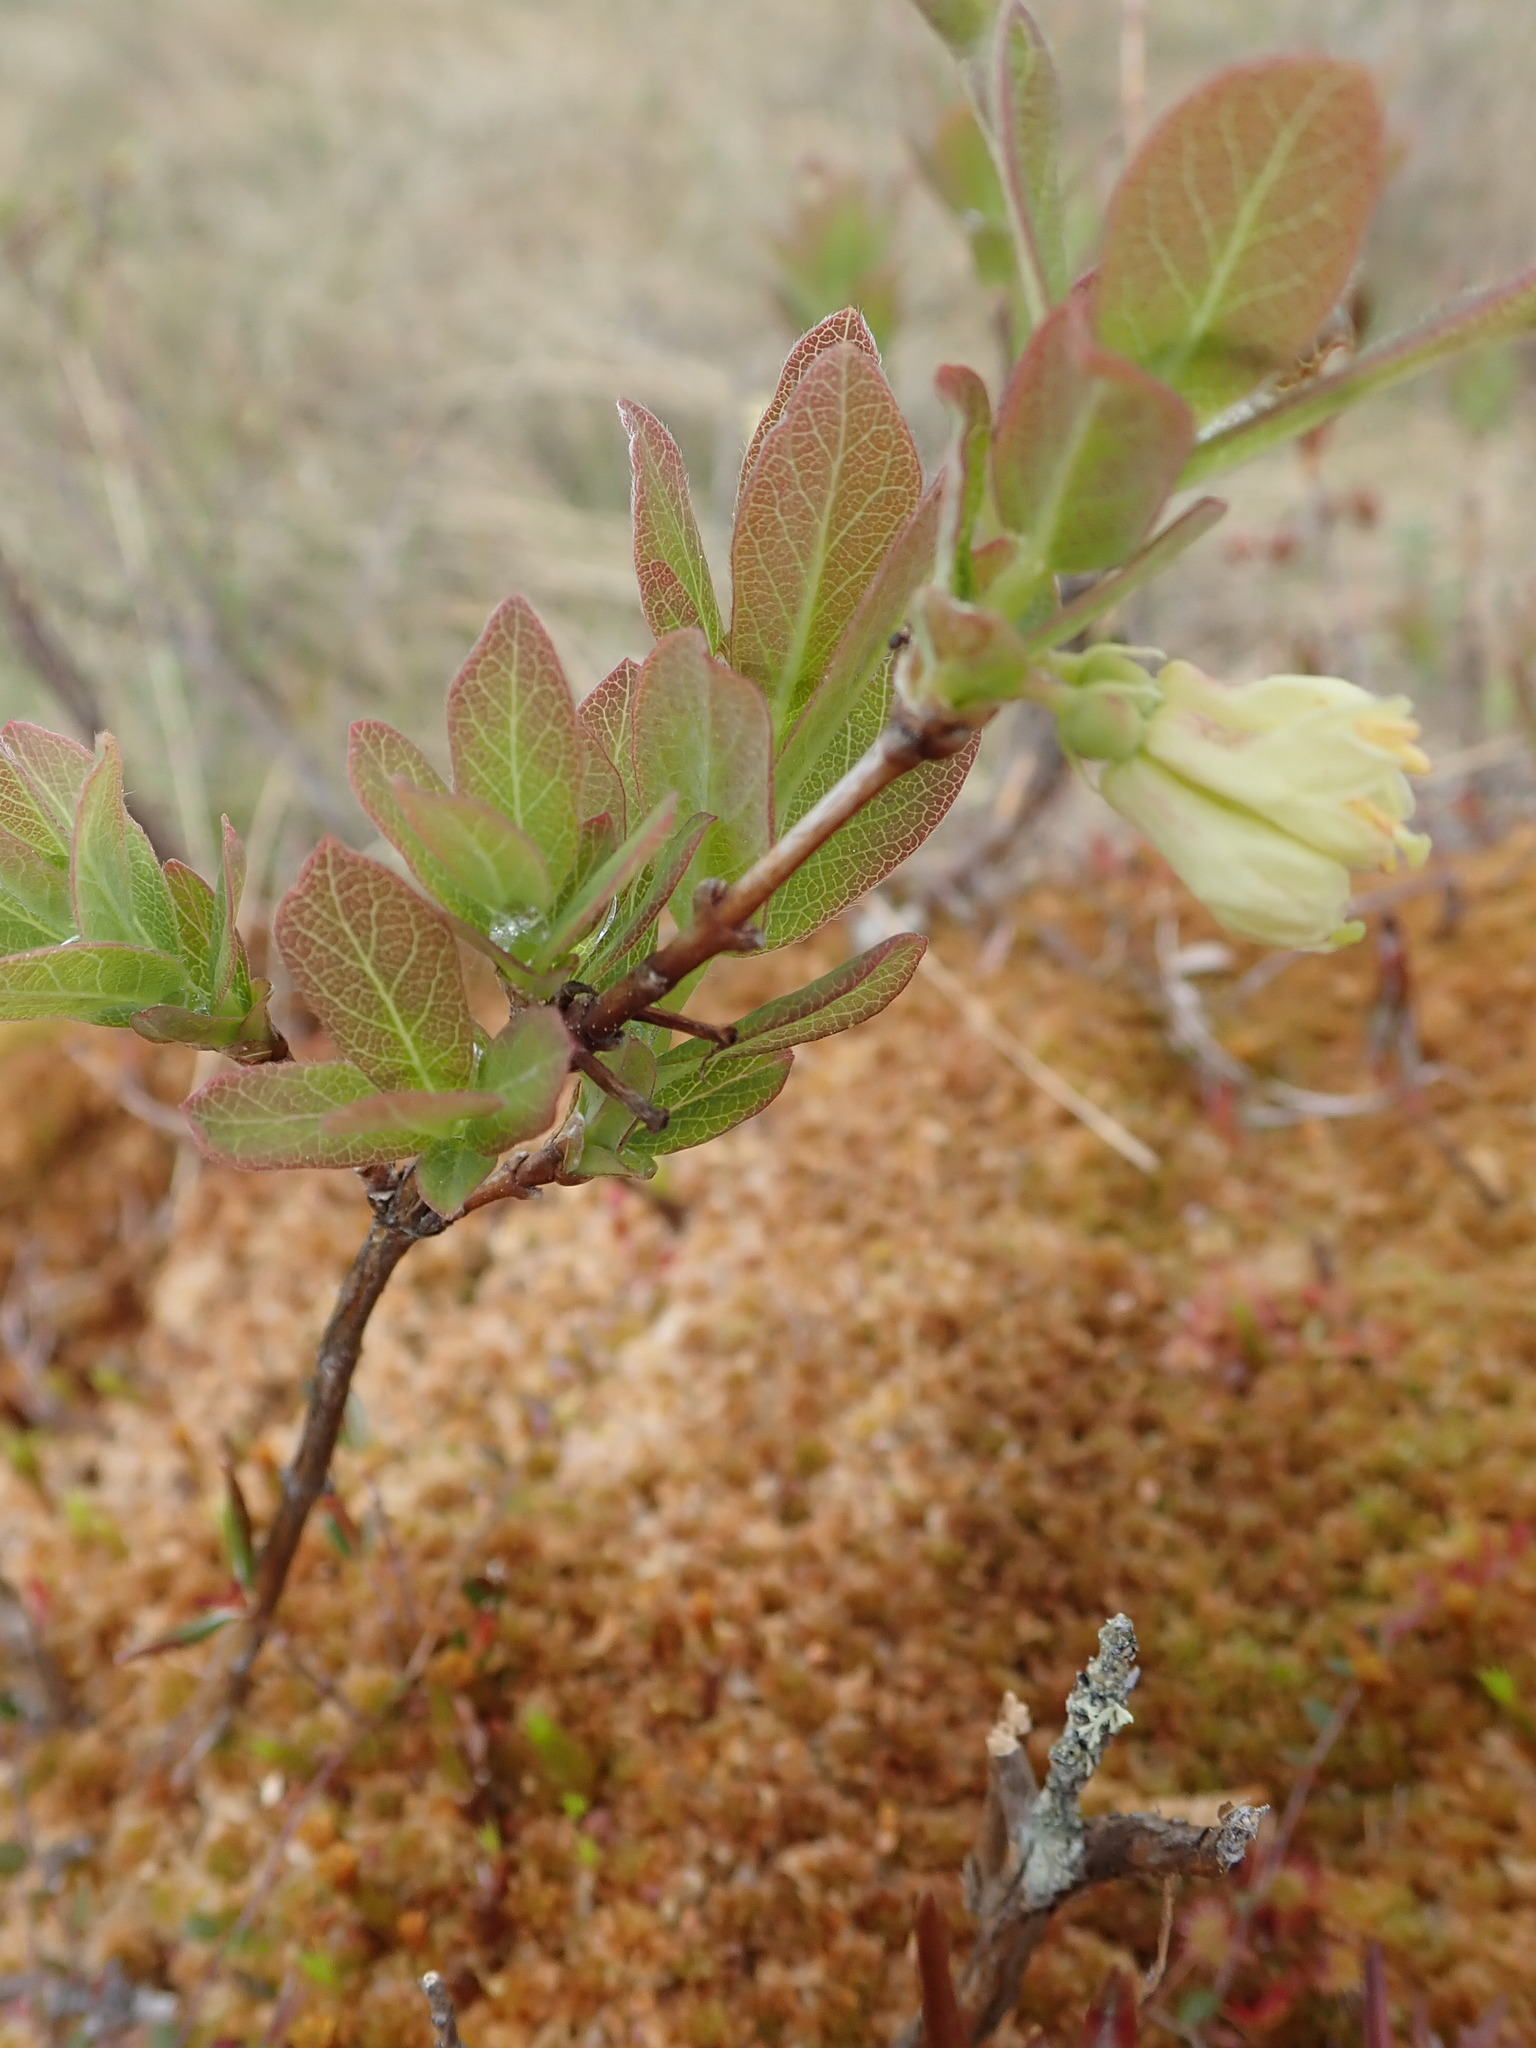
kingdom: Plantae
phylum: Tracheophyta
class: Magnoliopsida
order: Dipsacales
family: Caprifoliaceae
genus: Lonicera
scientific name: Lonicera villosa
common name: Mountain fly-honeysuckle
